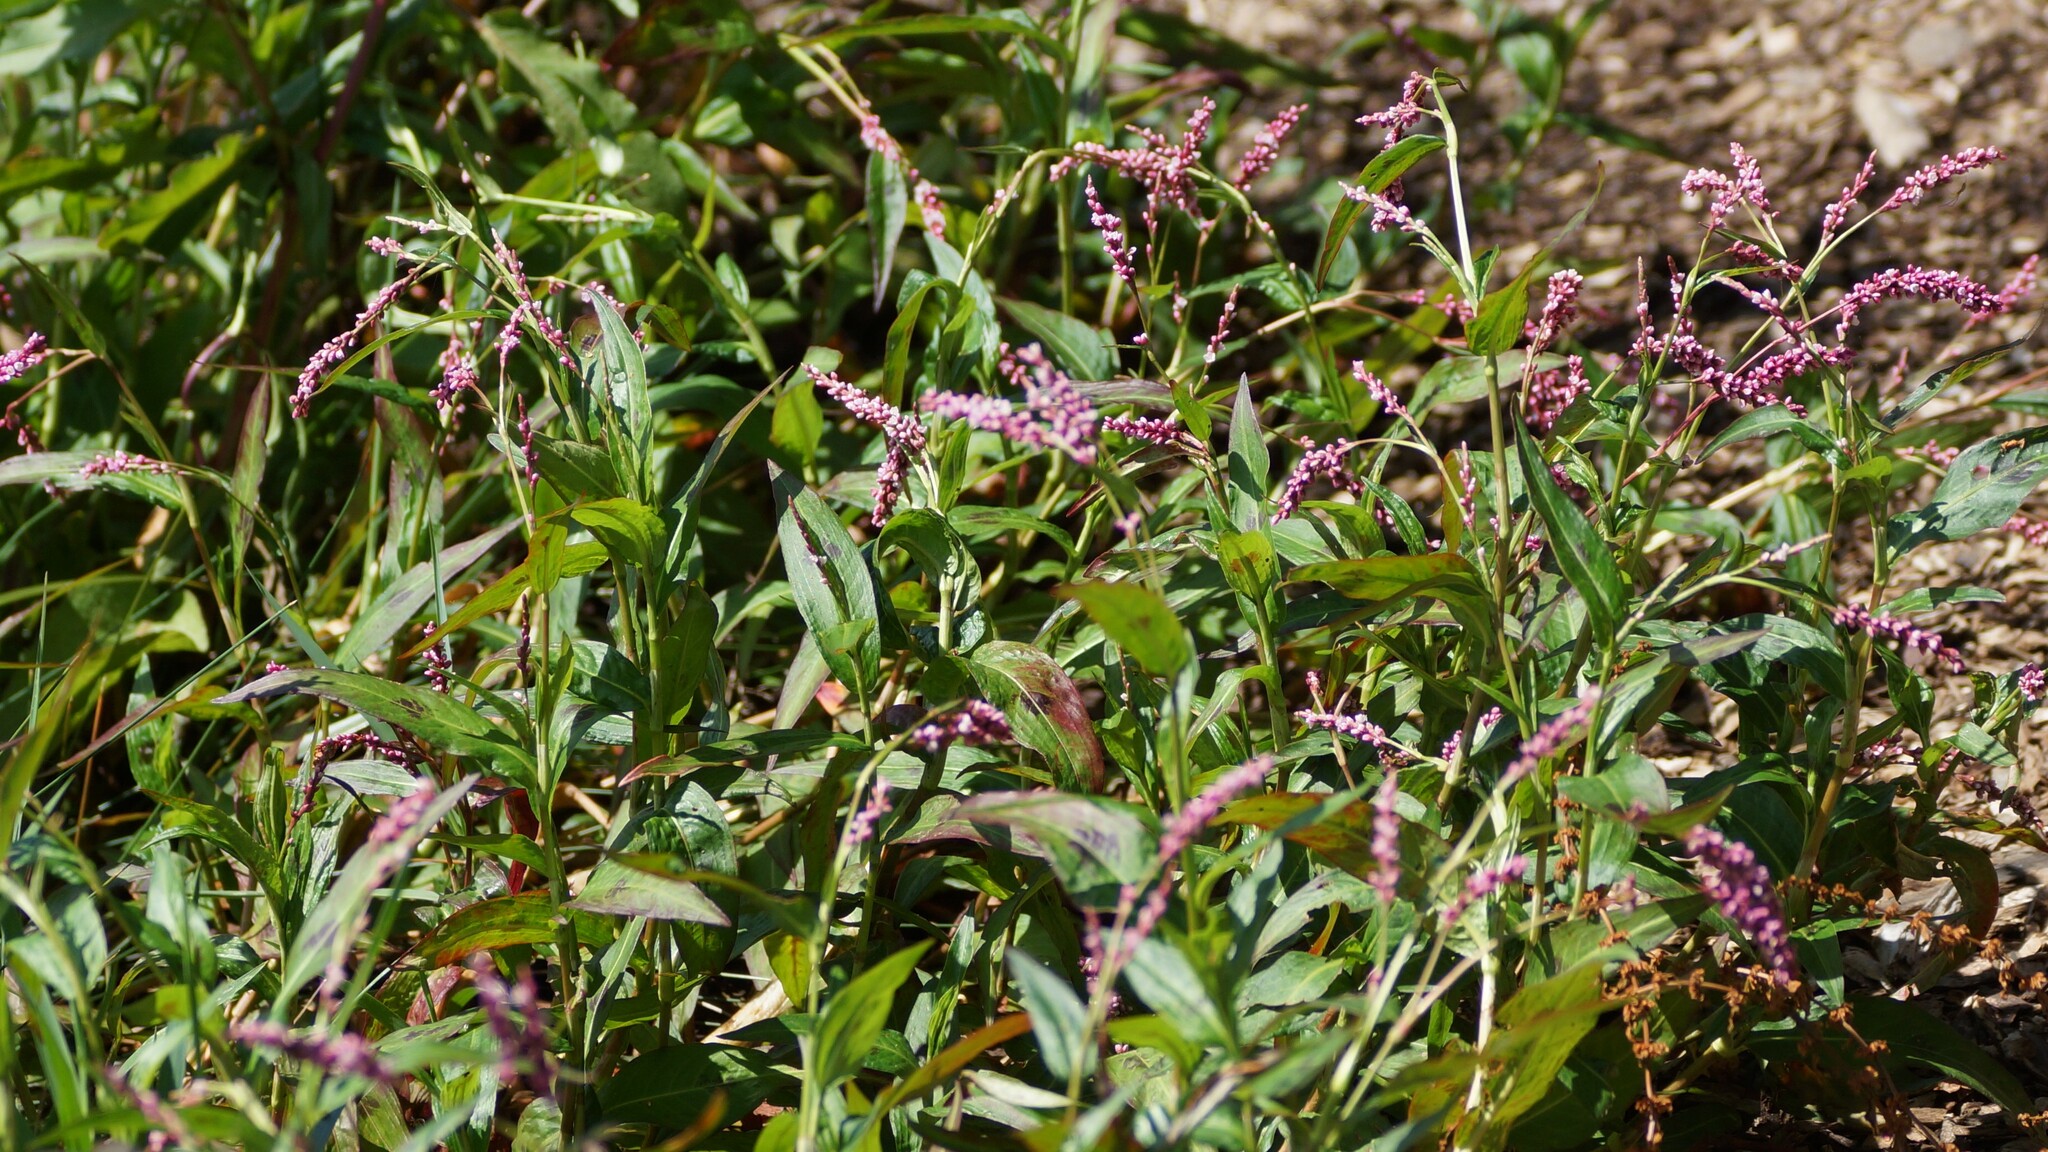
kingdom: Plantae
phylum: Tracheophyta
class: Magnoliopsida
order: Caryophyllales
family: Polygonaceae
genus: Persicaria
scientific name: Persicaria decipiens
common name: Willow-weed
